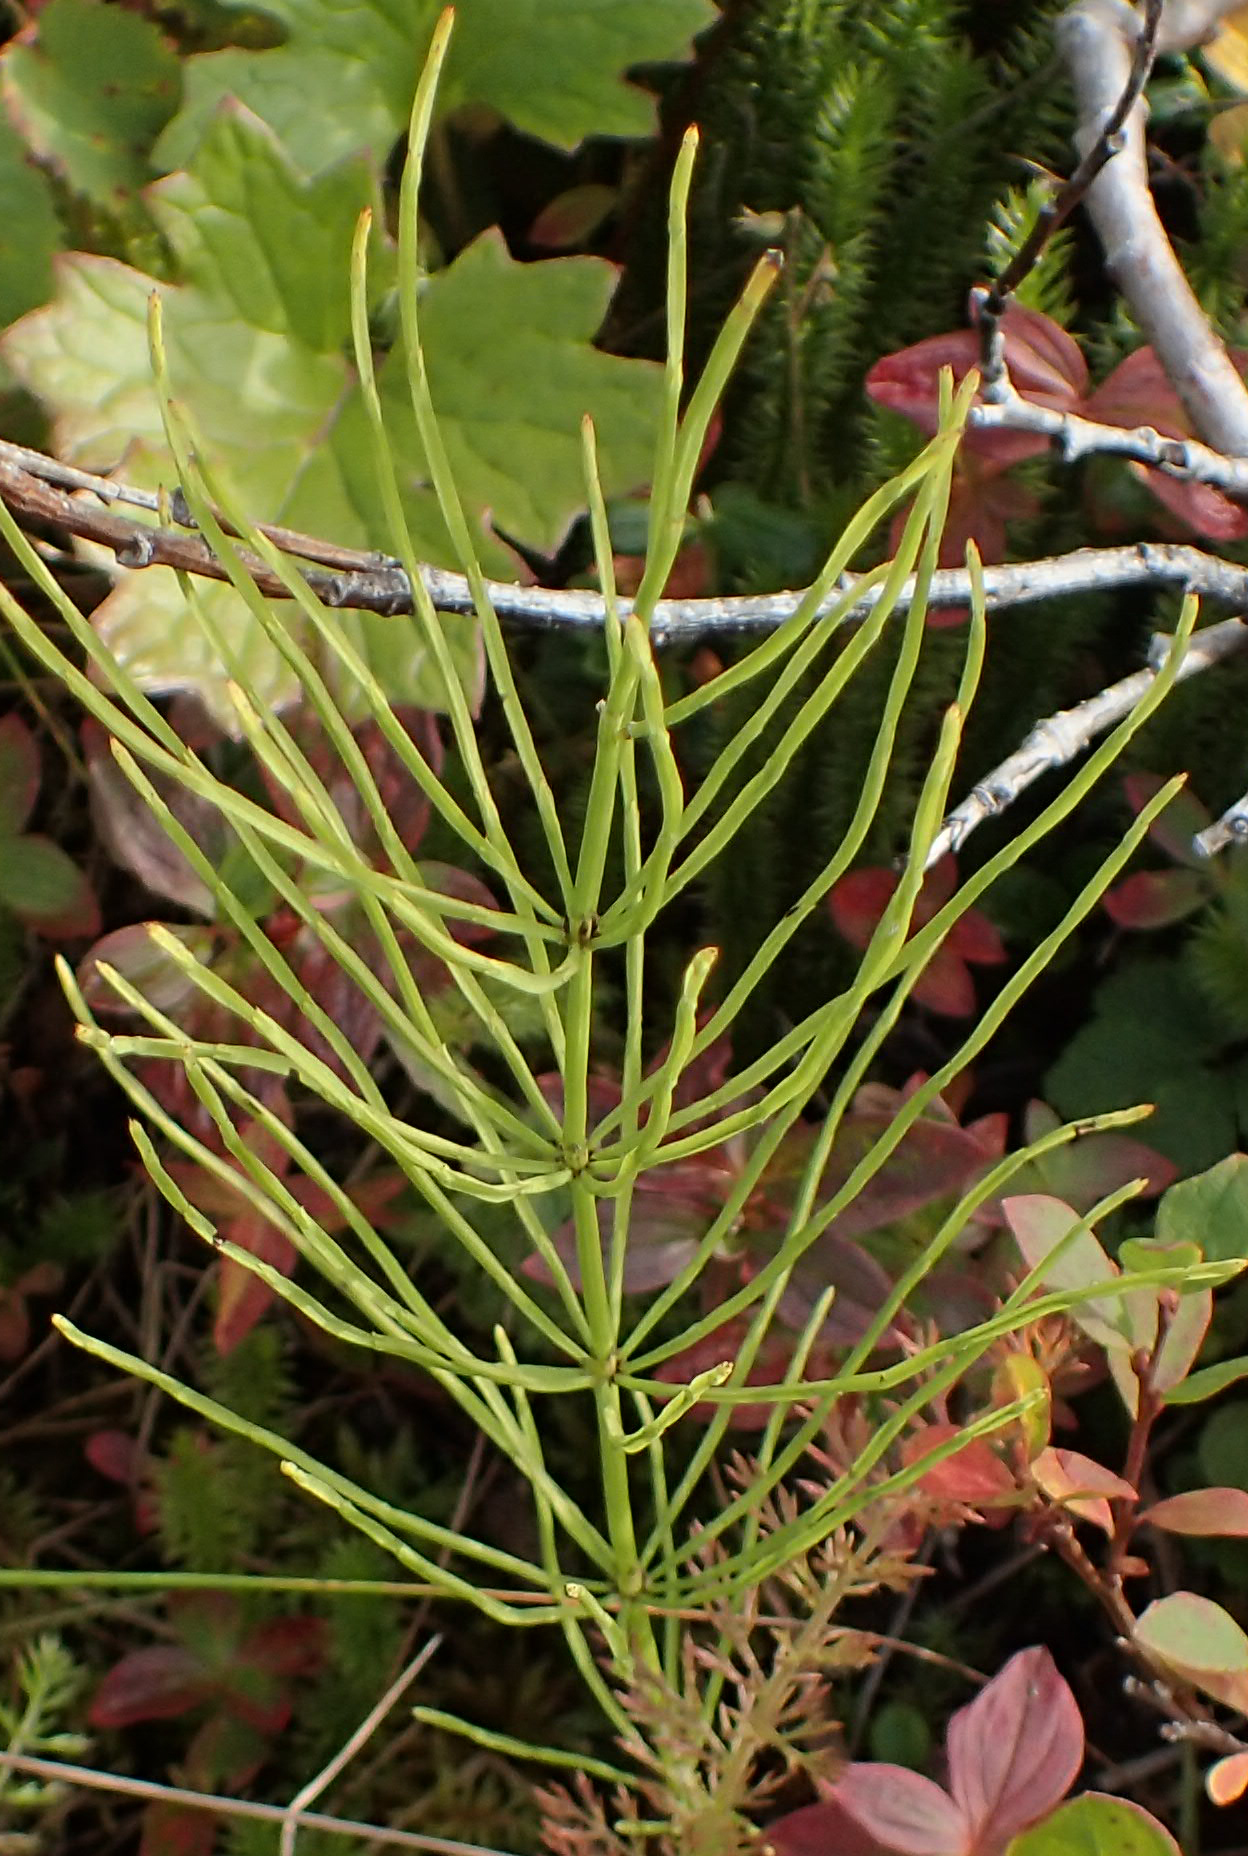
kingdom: Plantae
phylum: Tracheophyta
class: Polypodiopsida
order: Equisetales
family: Equisetaceae
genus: Equisetum
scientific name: Equisetum arvense
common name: Field horsetail
